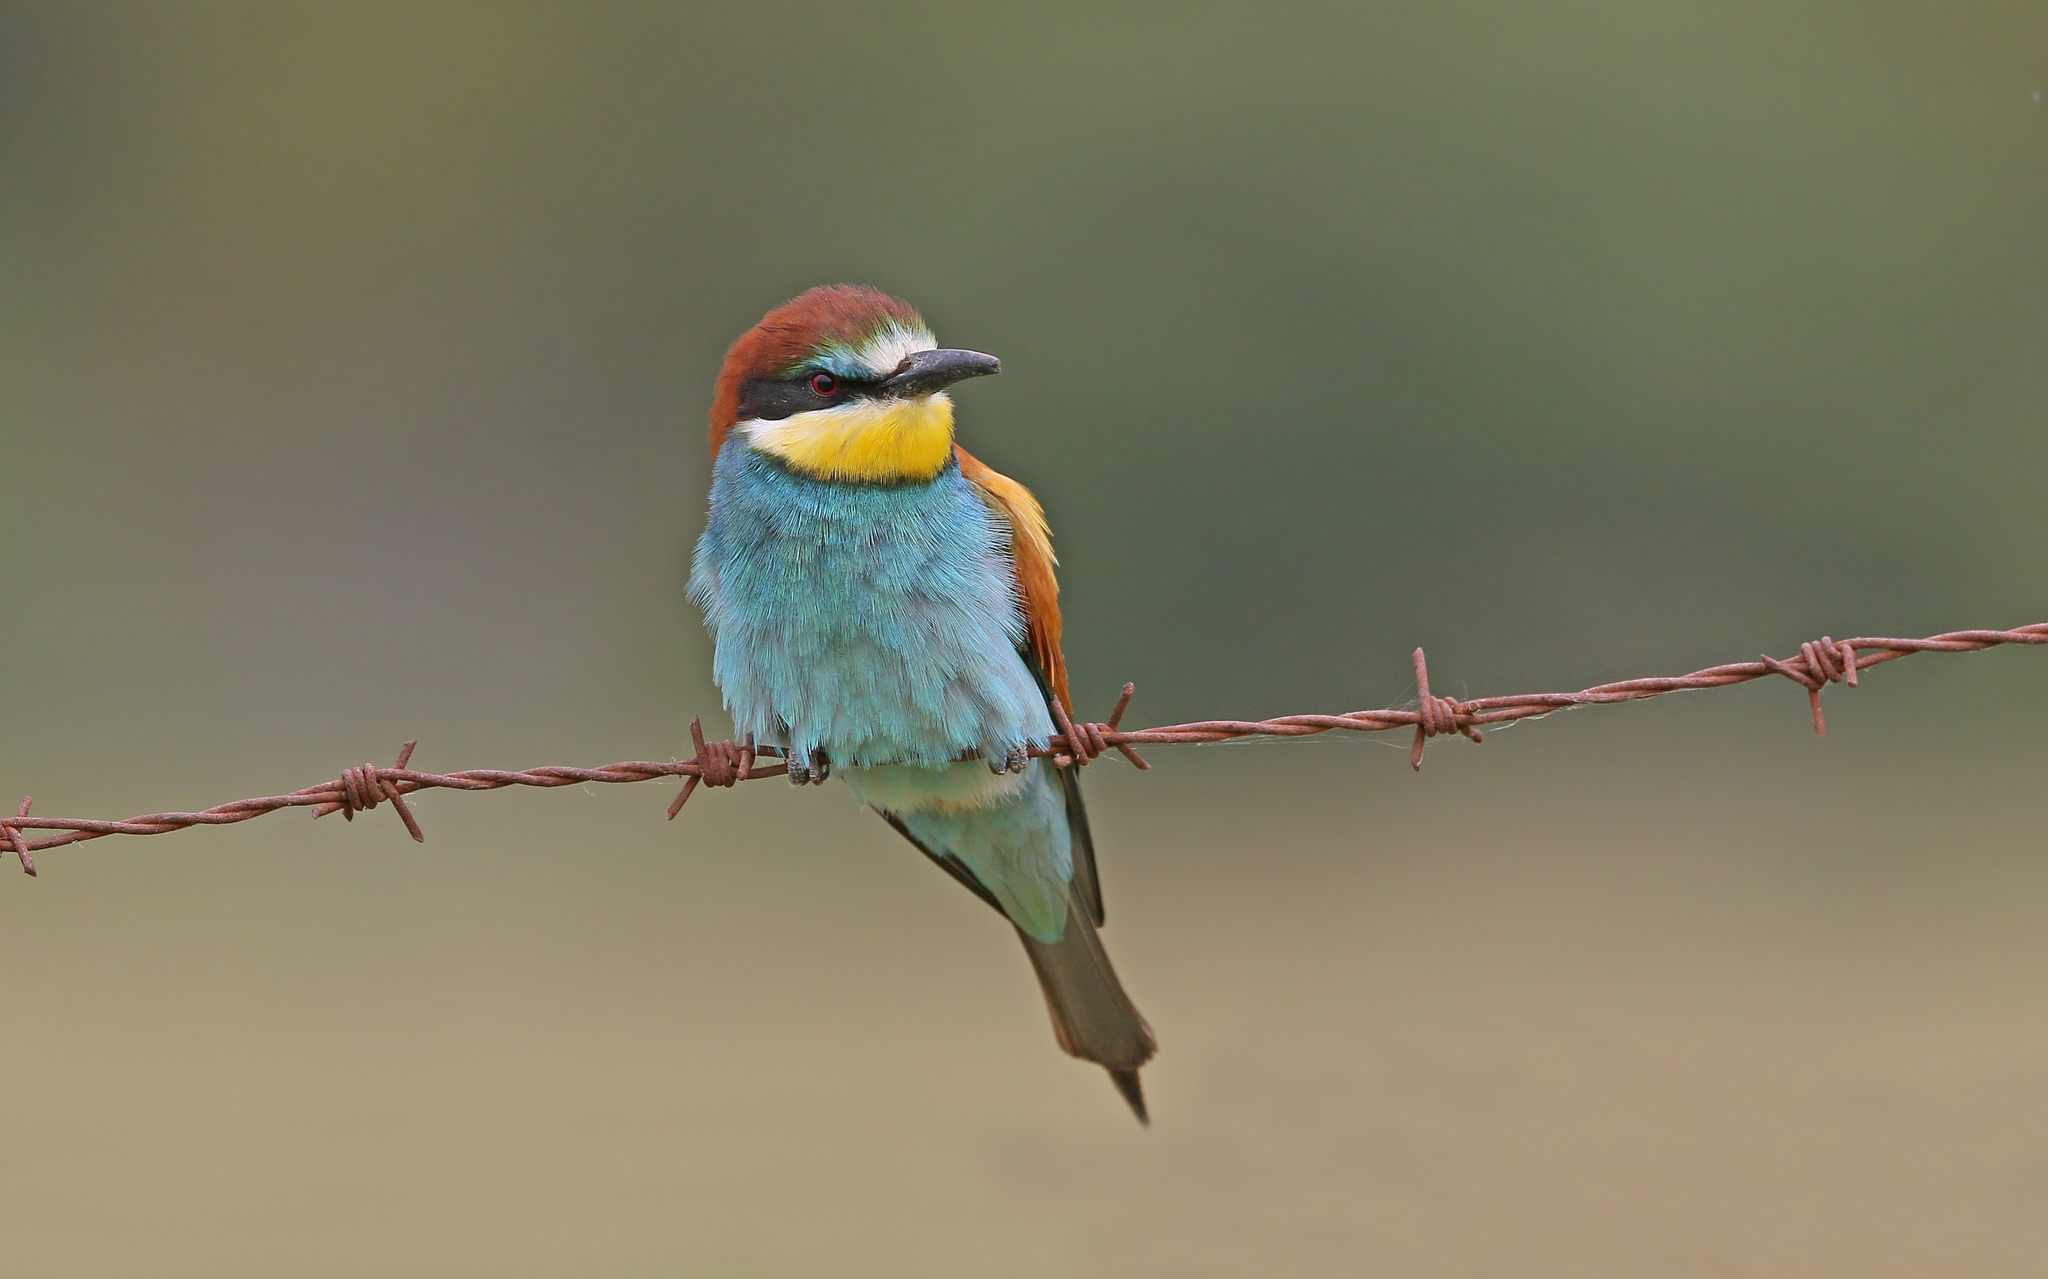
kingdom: Animalia
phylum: Chordata
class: Aves
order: Coraciiformes
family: Meropidae
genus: Merops
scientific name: Merops apiaster
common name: European bee-eater
